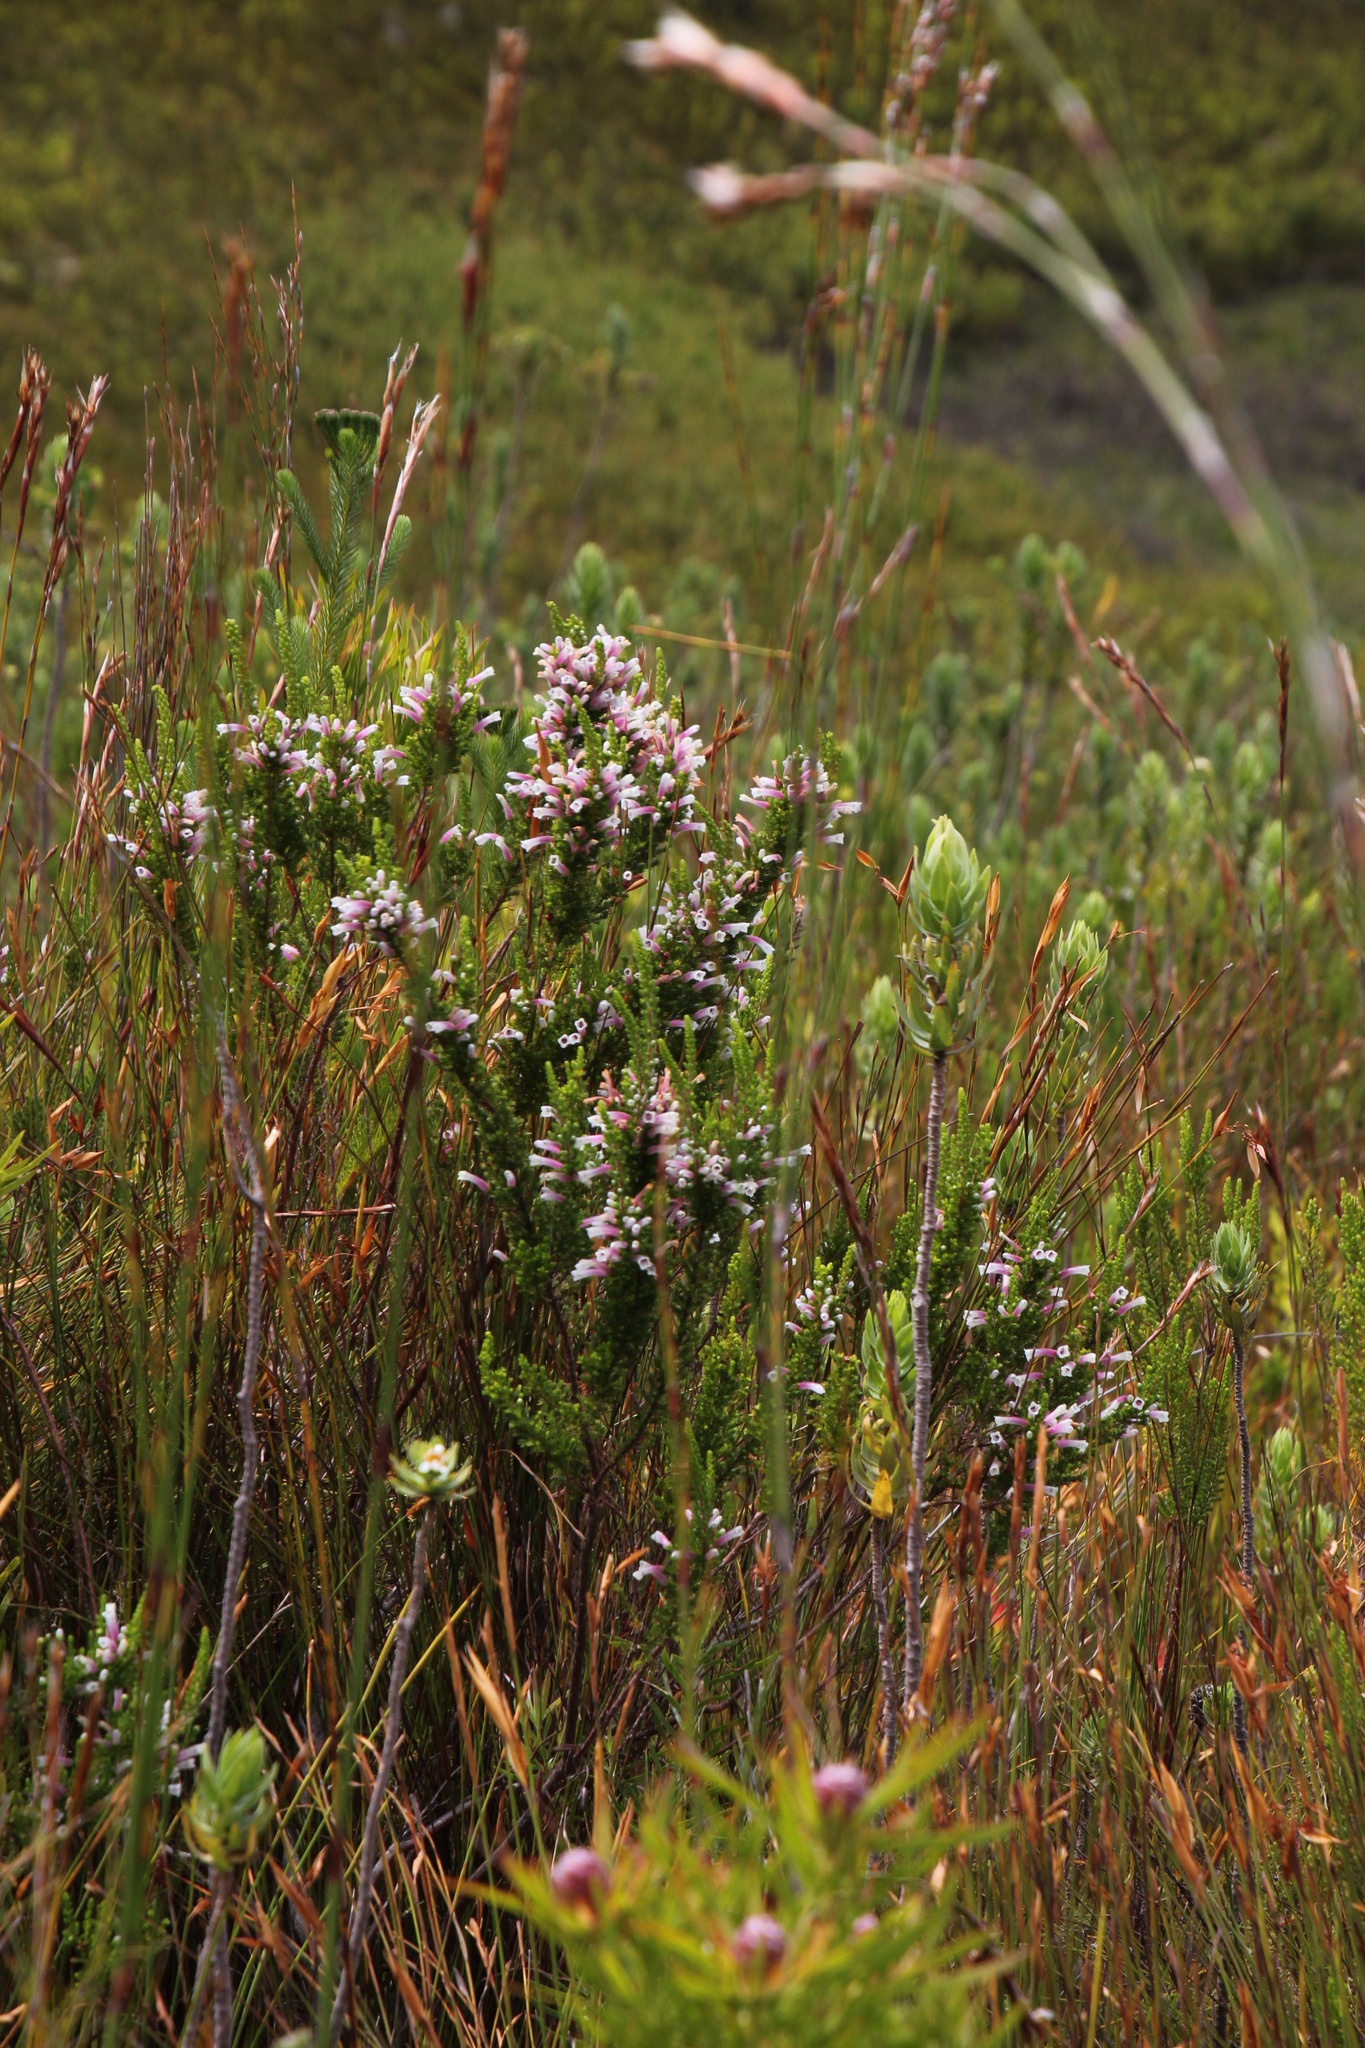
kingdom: Plantae
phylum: Tracheophyta
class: Magnoliopsida
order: Ericales
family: Ericaceae
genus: Erica
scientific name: Erica perspicua
